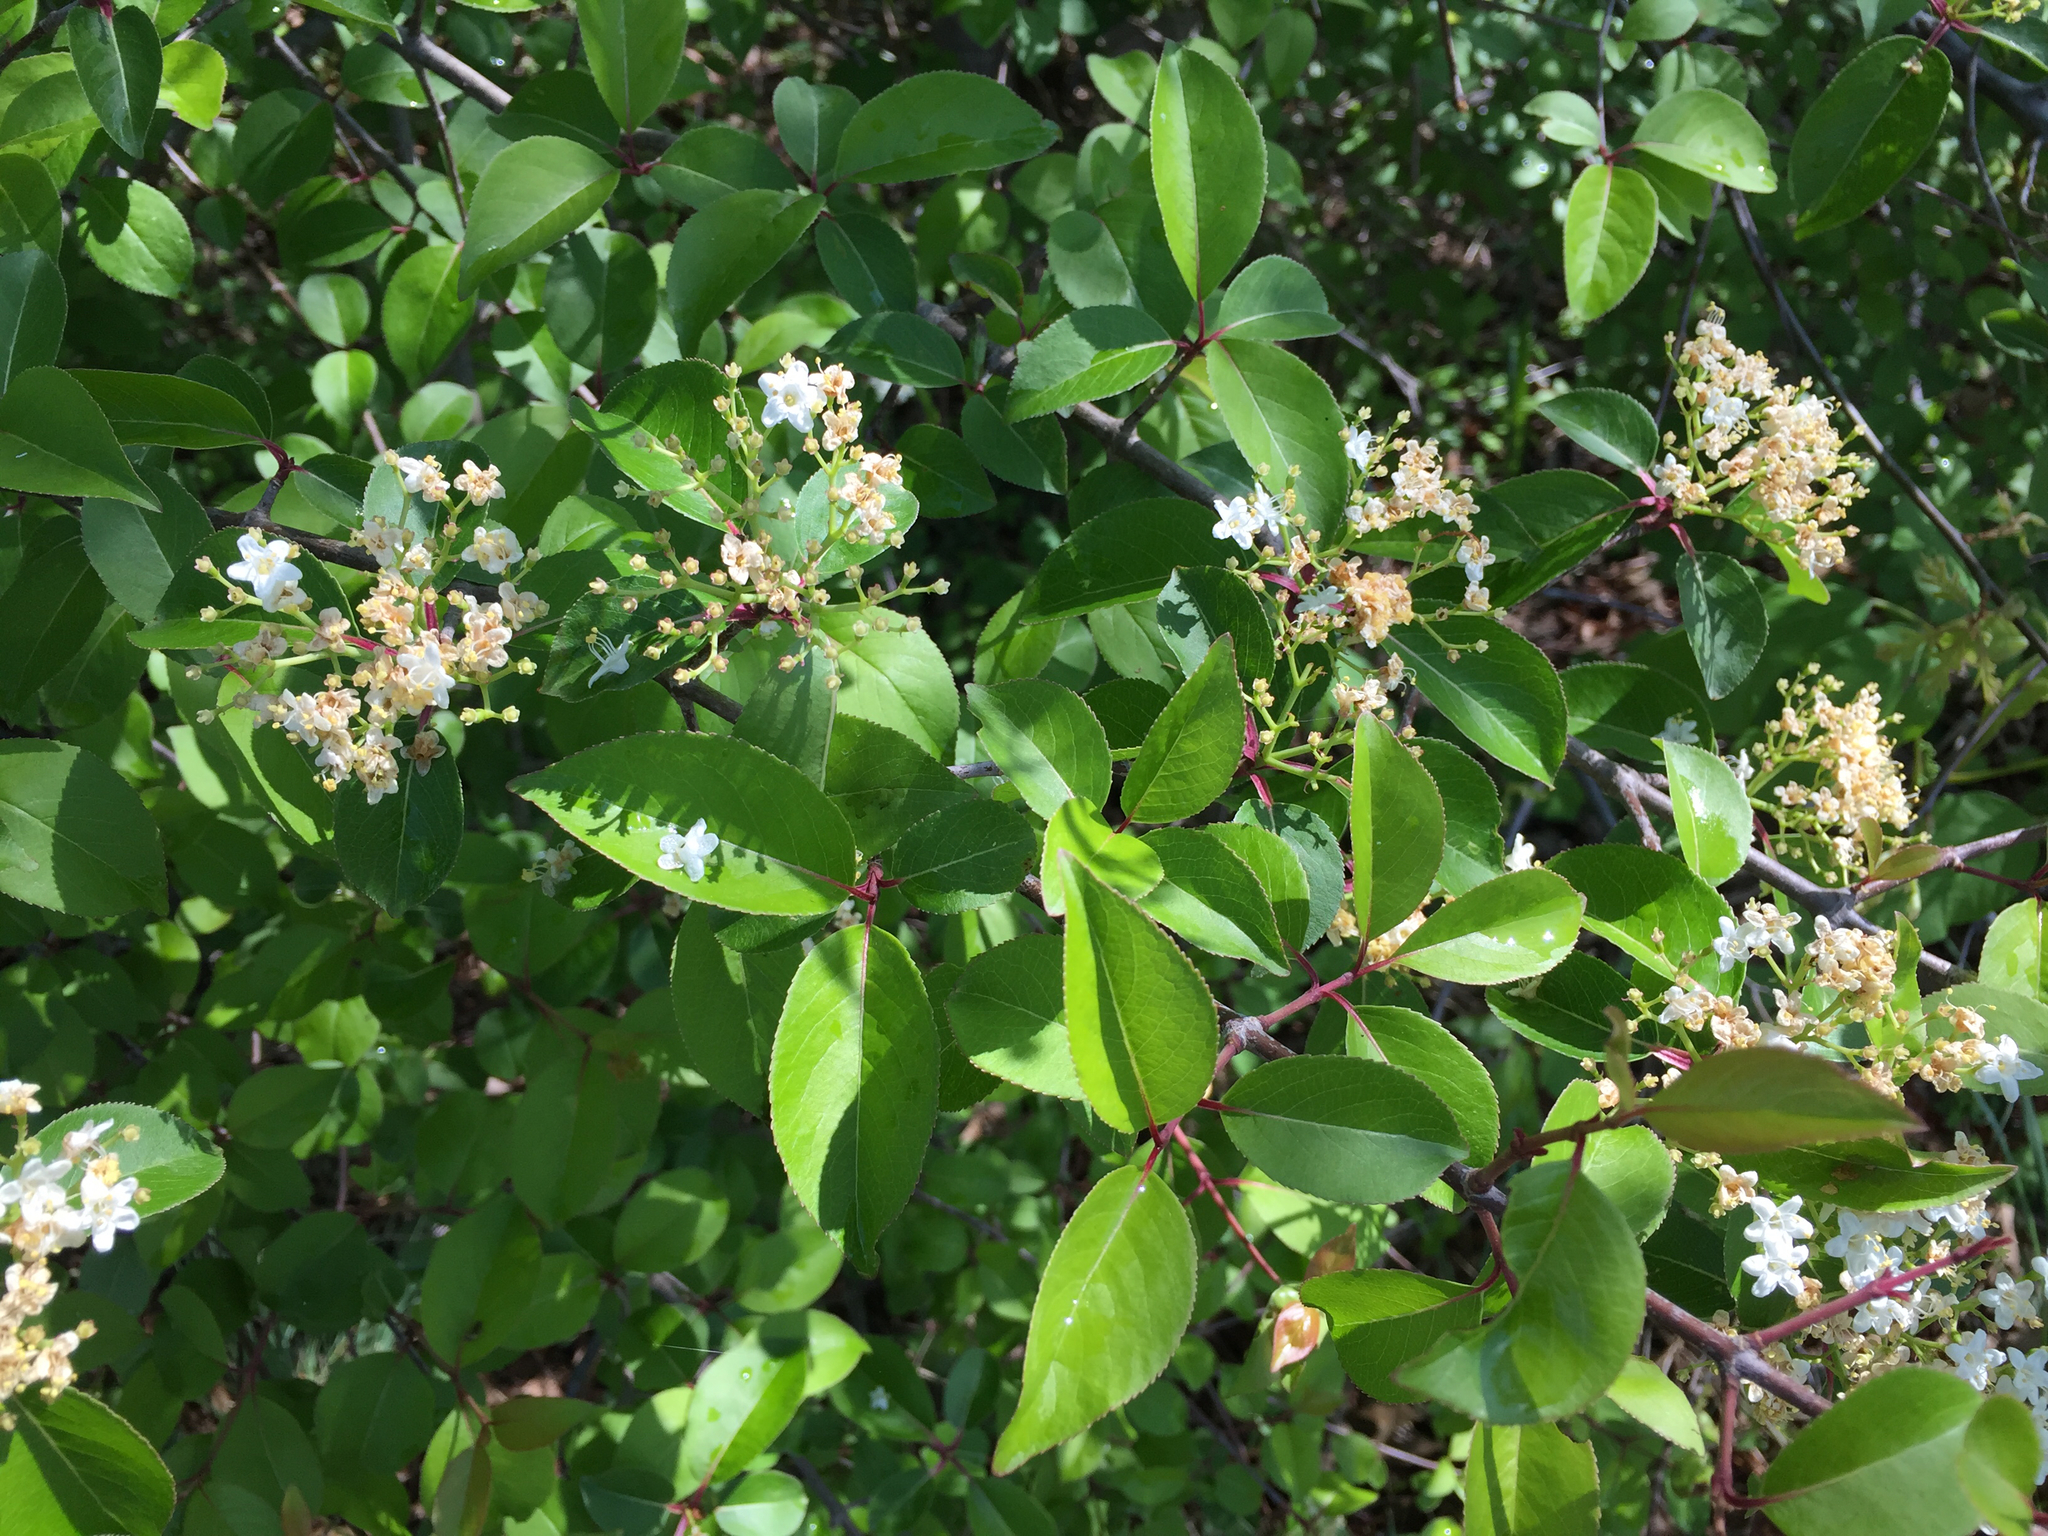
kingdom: Plantae
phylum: Tracheophyta
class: Magnoliopsida
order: Dipsacales
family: Viburnaceae
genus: Viburnum
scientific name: Viburnum prunifolium
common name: Black haw
